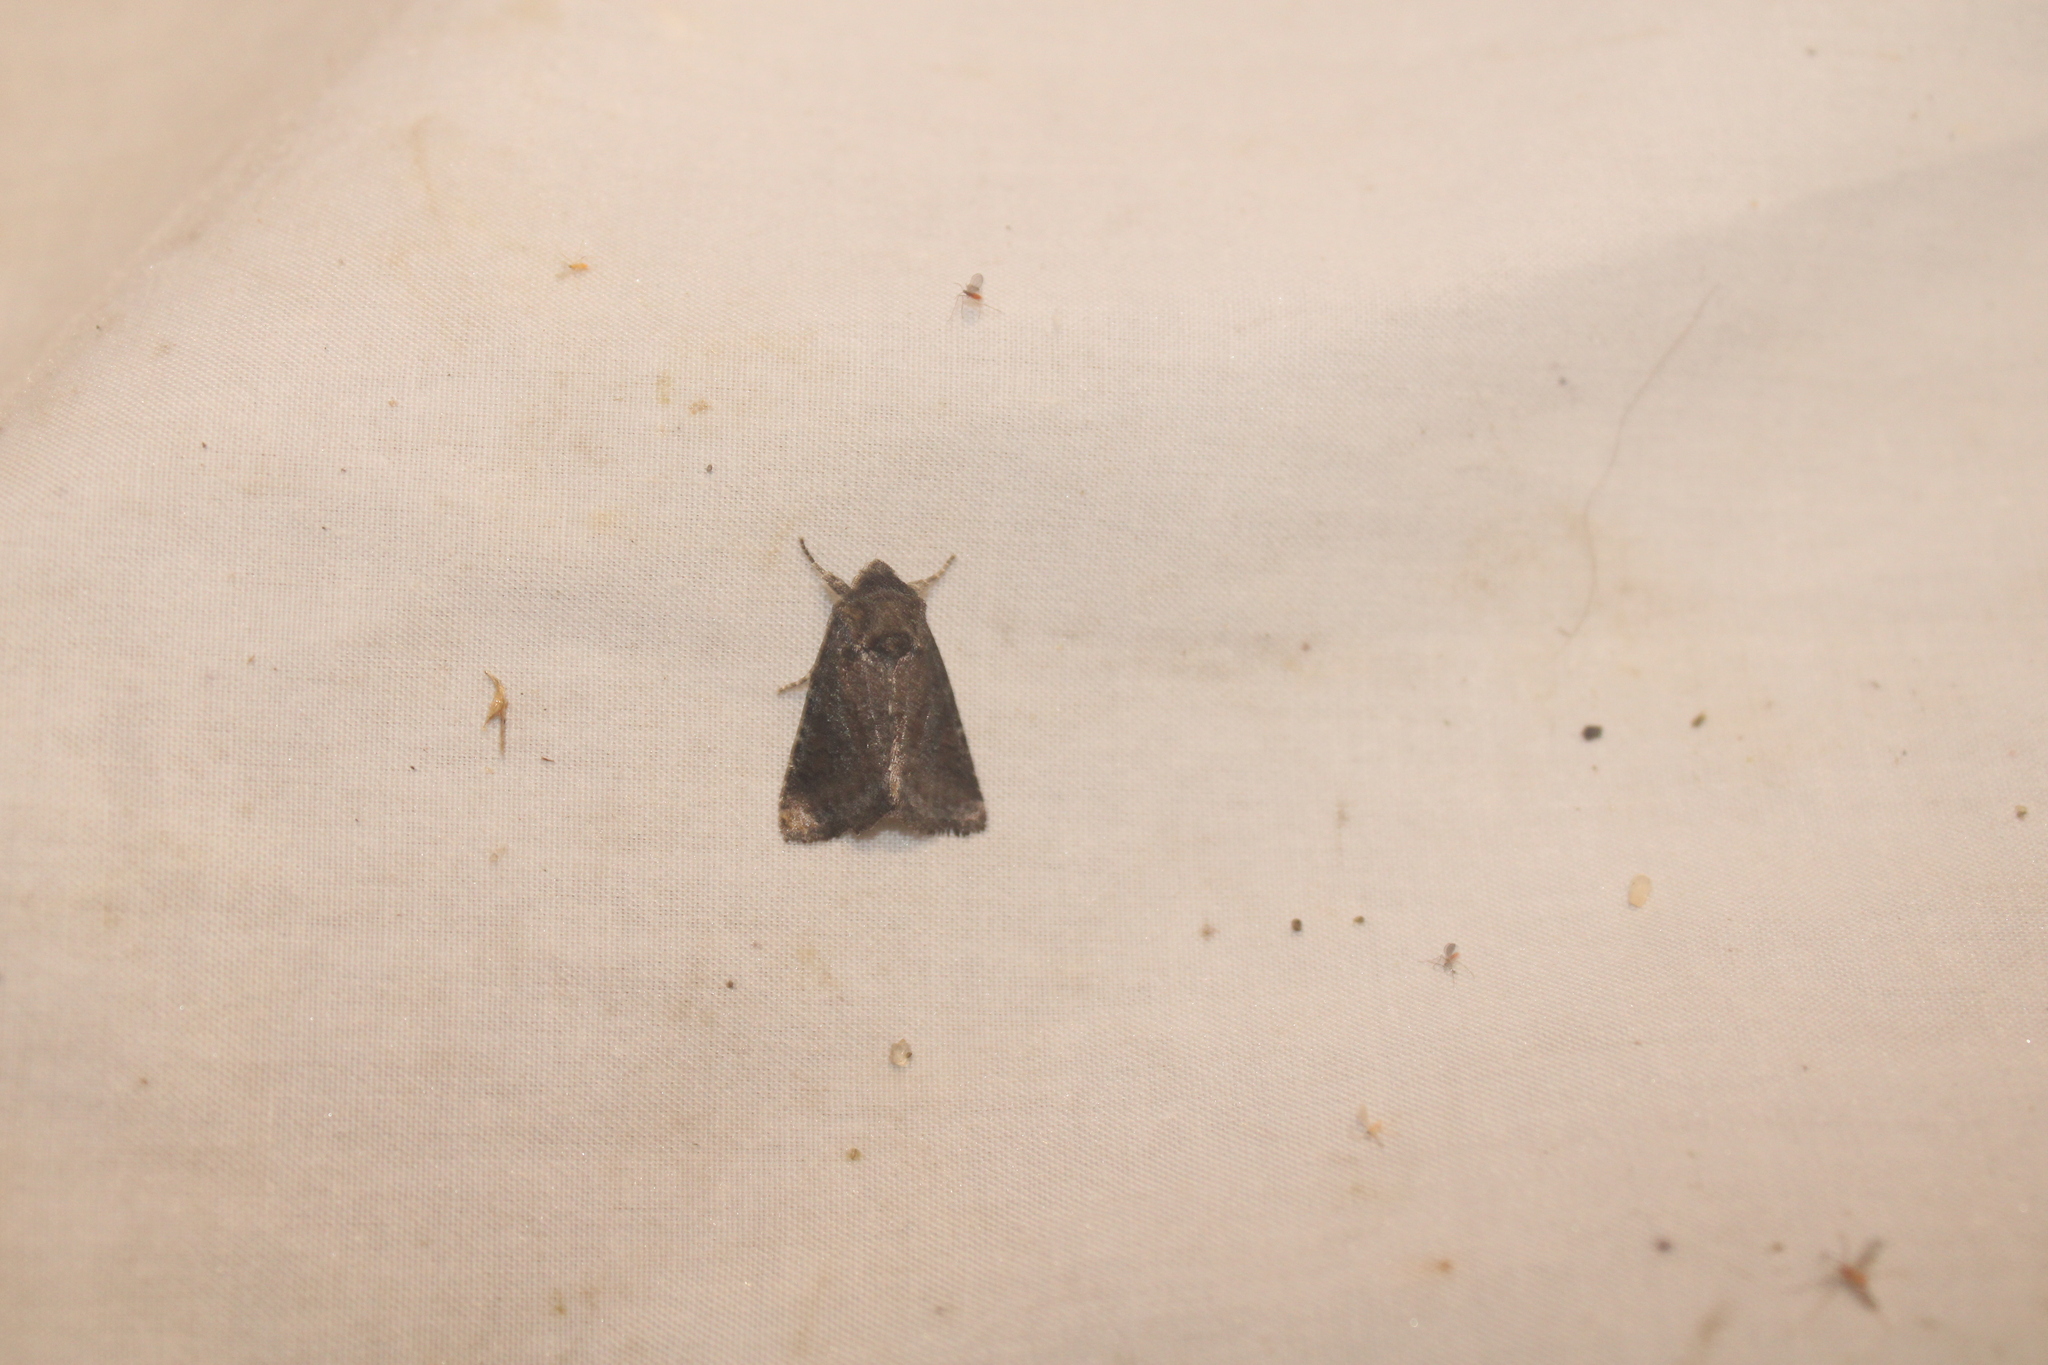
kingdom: Animalia
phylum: Arthropoda
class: Insecta
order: Lepidoptera
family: Noctuidae
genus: Lacinipolia
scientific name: Lacinipolia meditata
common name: Thinker moth
